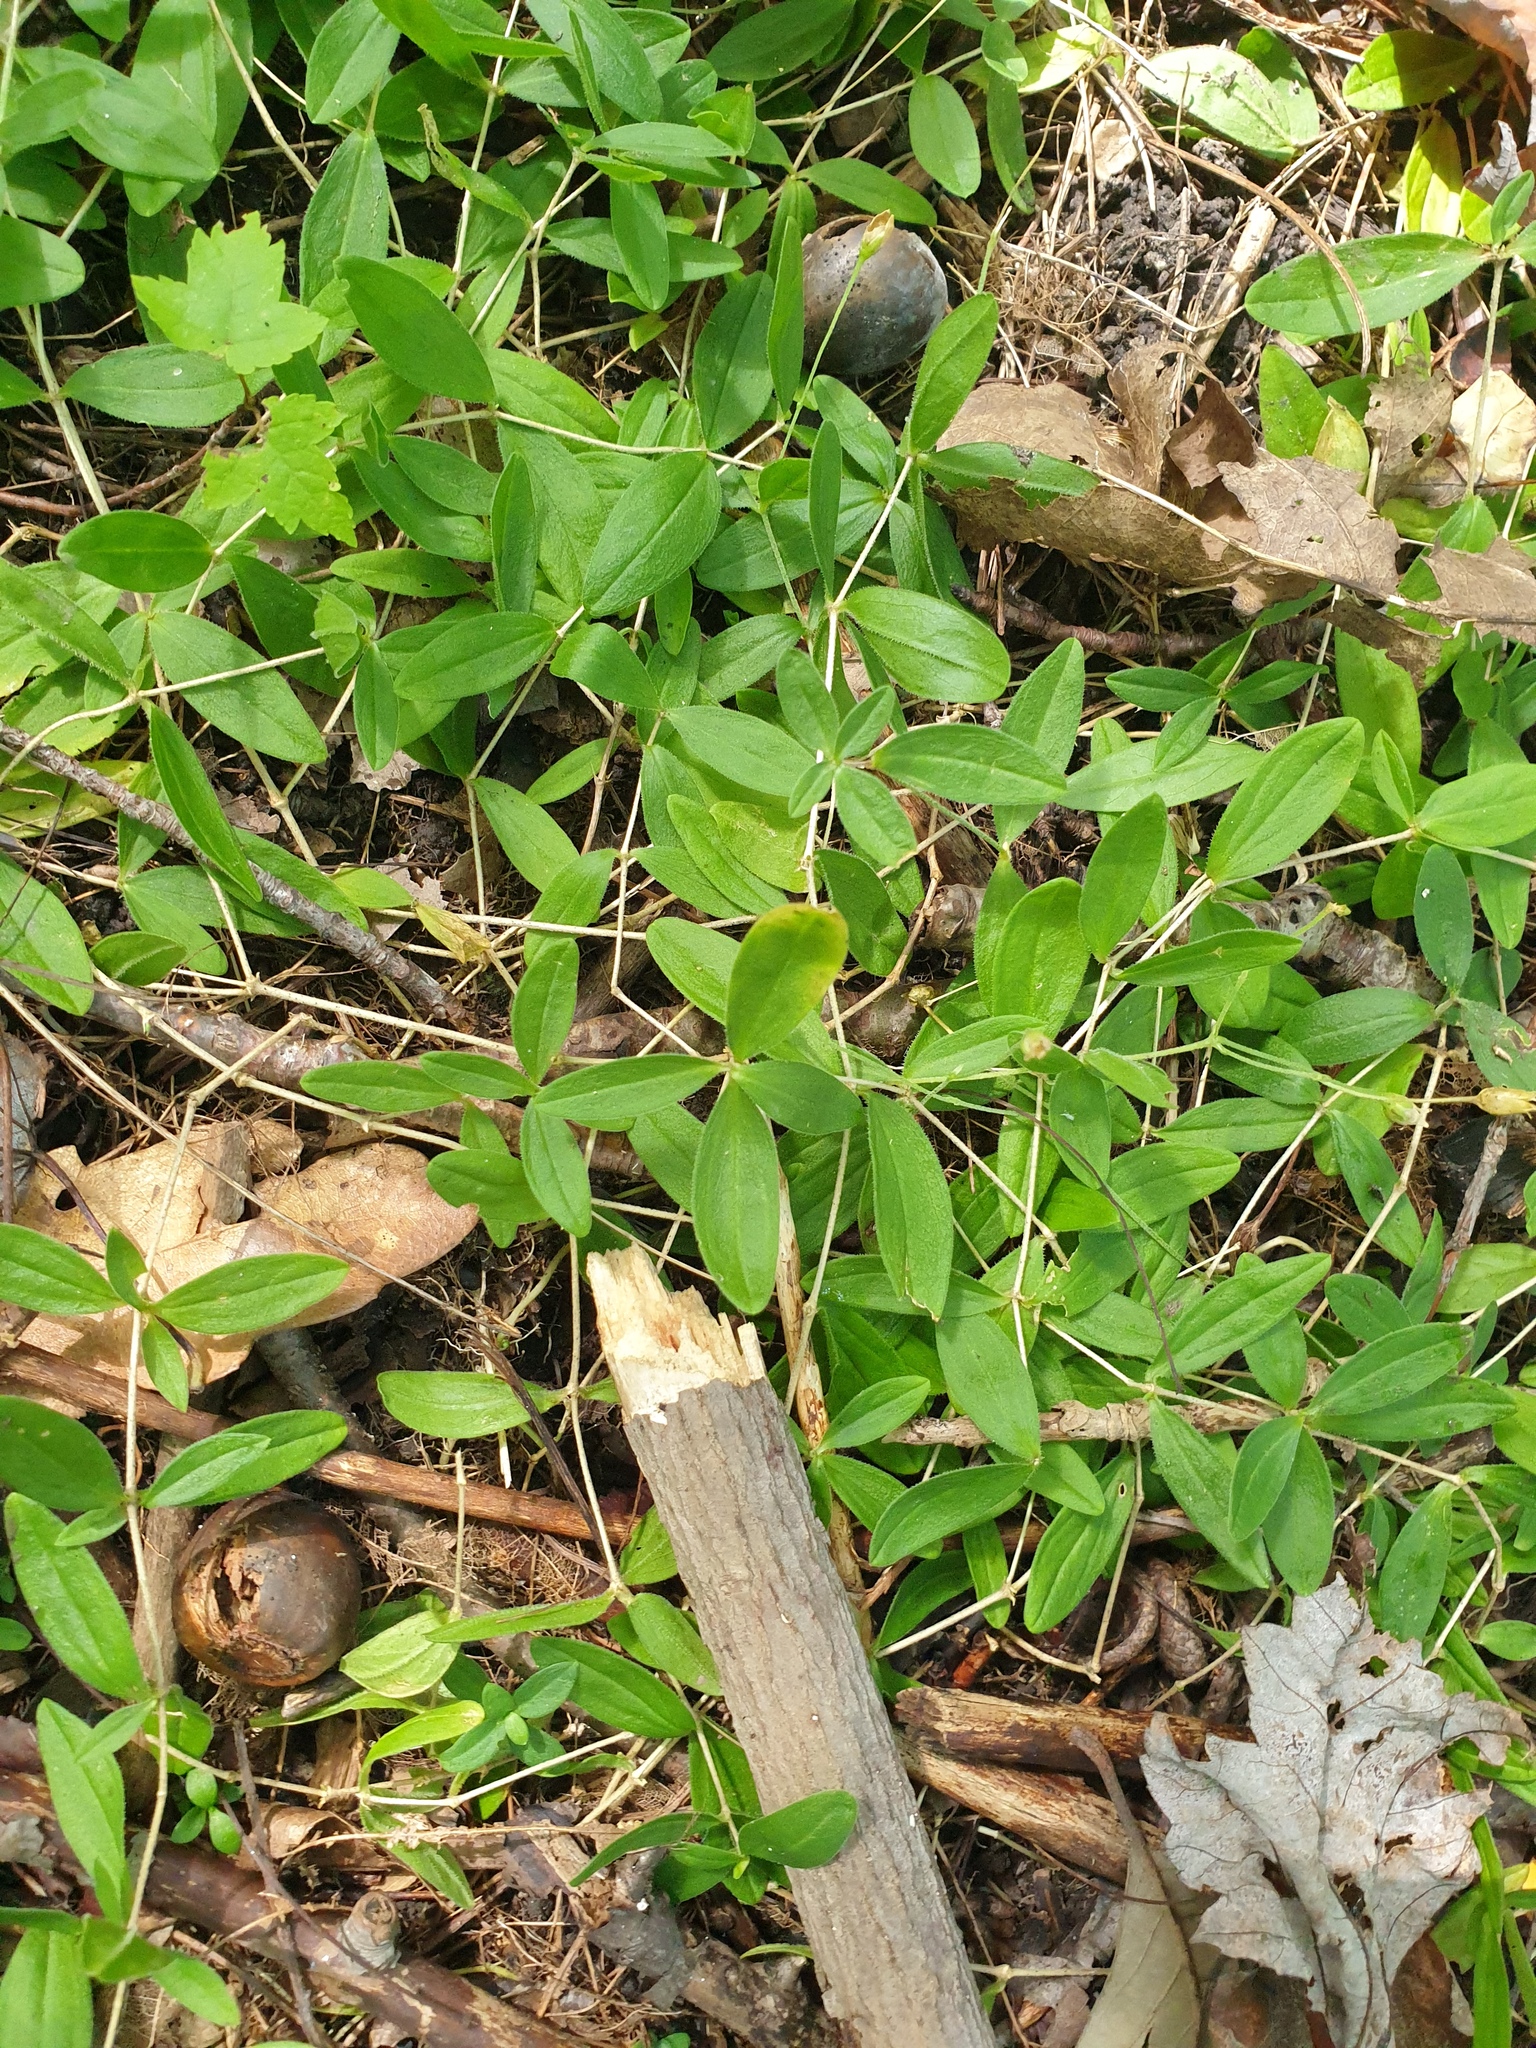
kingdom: Plantae
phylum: Tracheophyta
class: Magnoliopsida
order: Caryophyllales
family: Caryophyllaceae
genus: Moehringia
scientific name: Moehringia lateriflora
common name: Blunt-leaved sandwort
